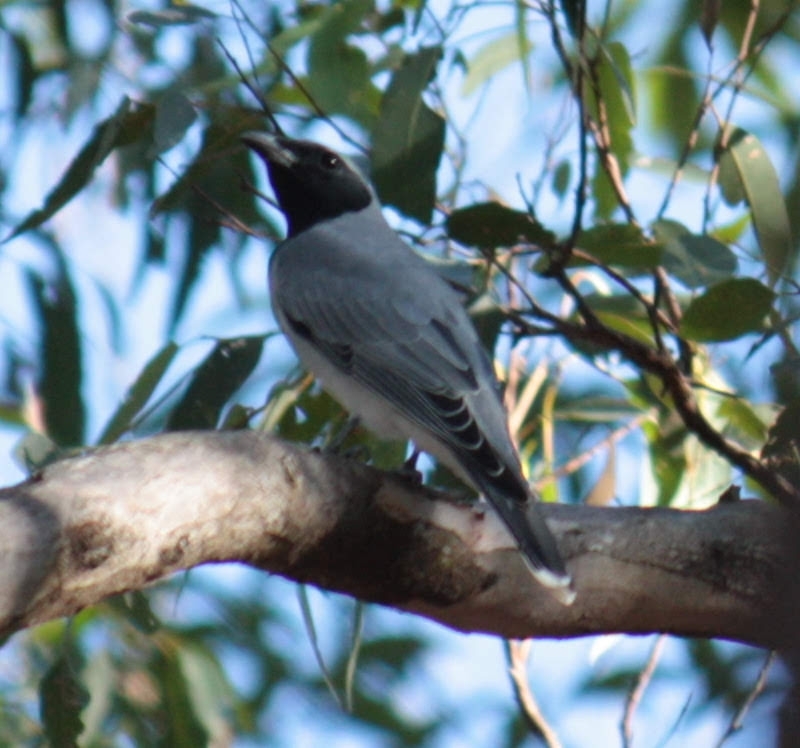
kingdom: Animalia
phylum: Chordata
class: Aves
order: Passeriformes
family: Campephagidae
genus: Coracina
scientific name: Coracina novaehollandiae
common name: Black-faced cuckooshrike
